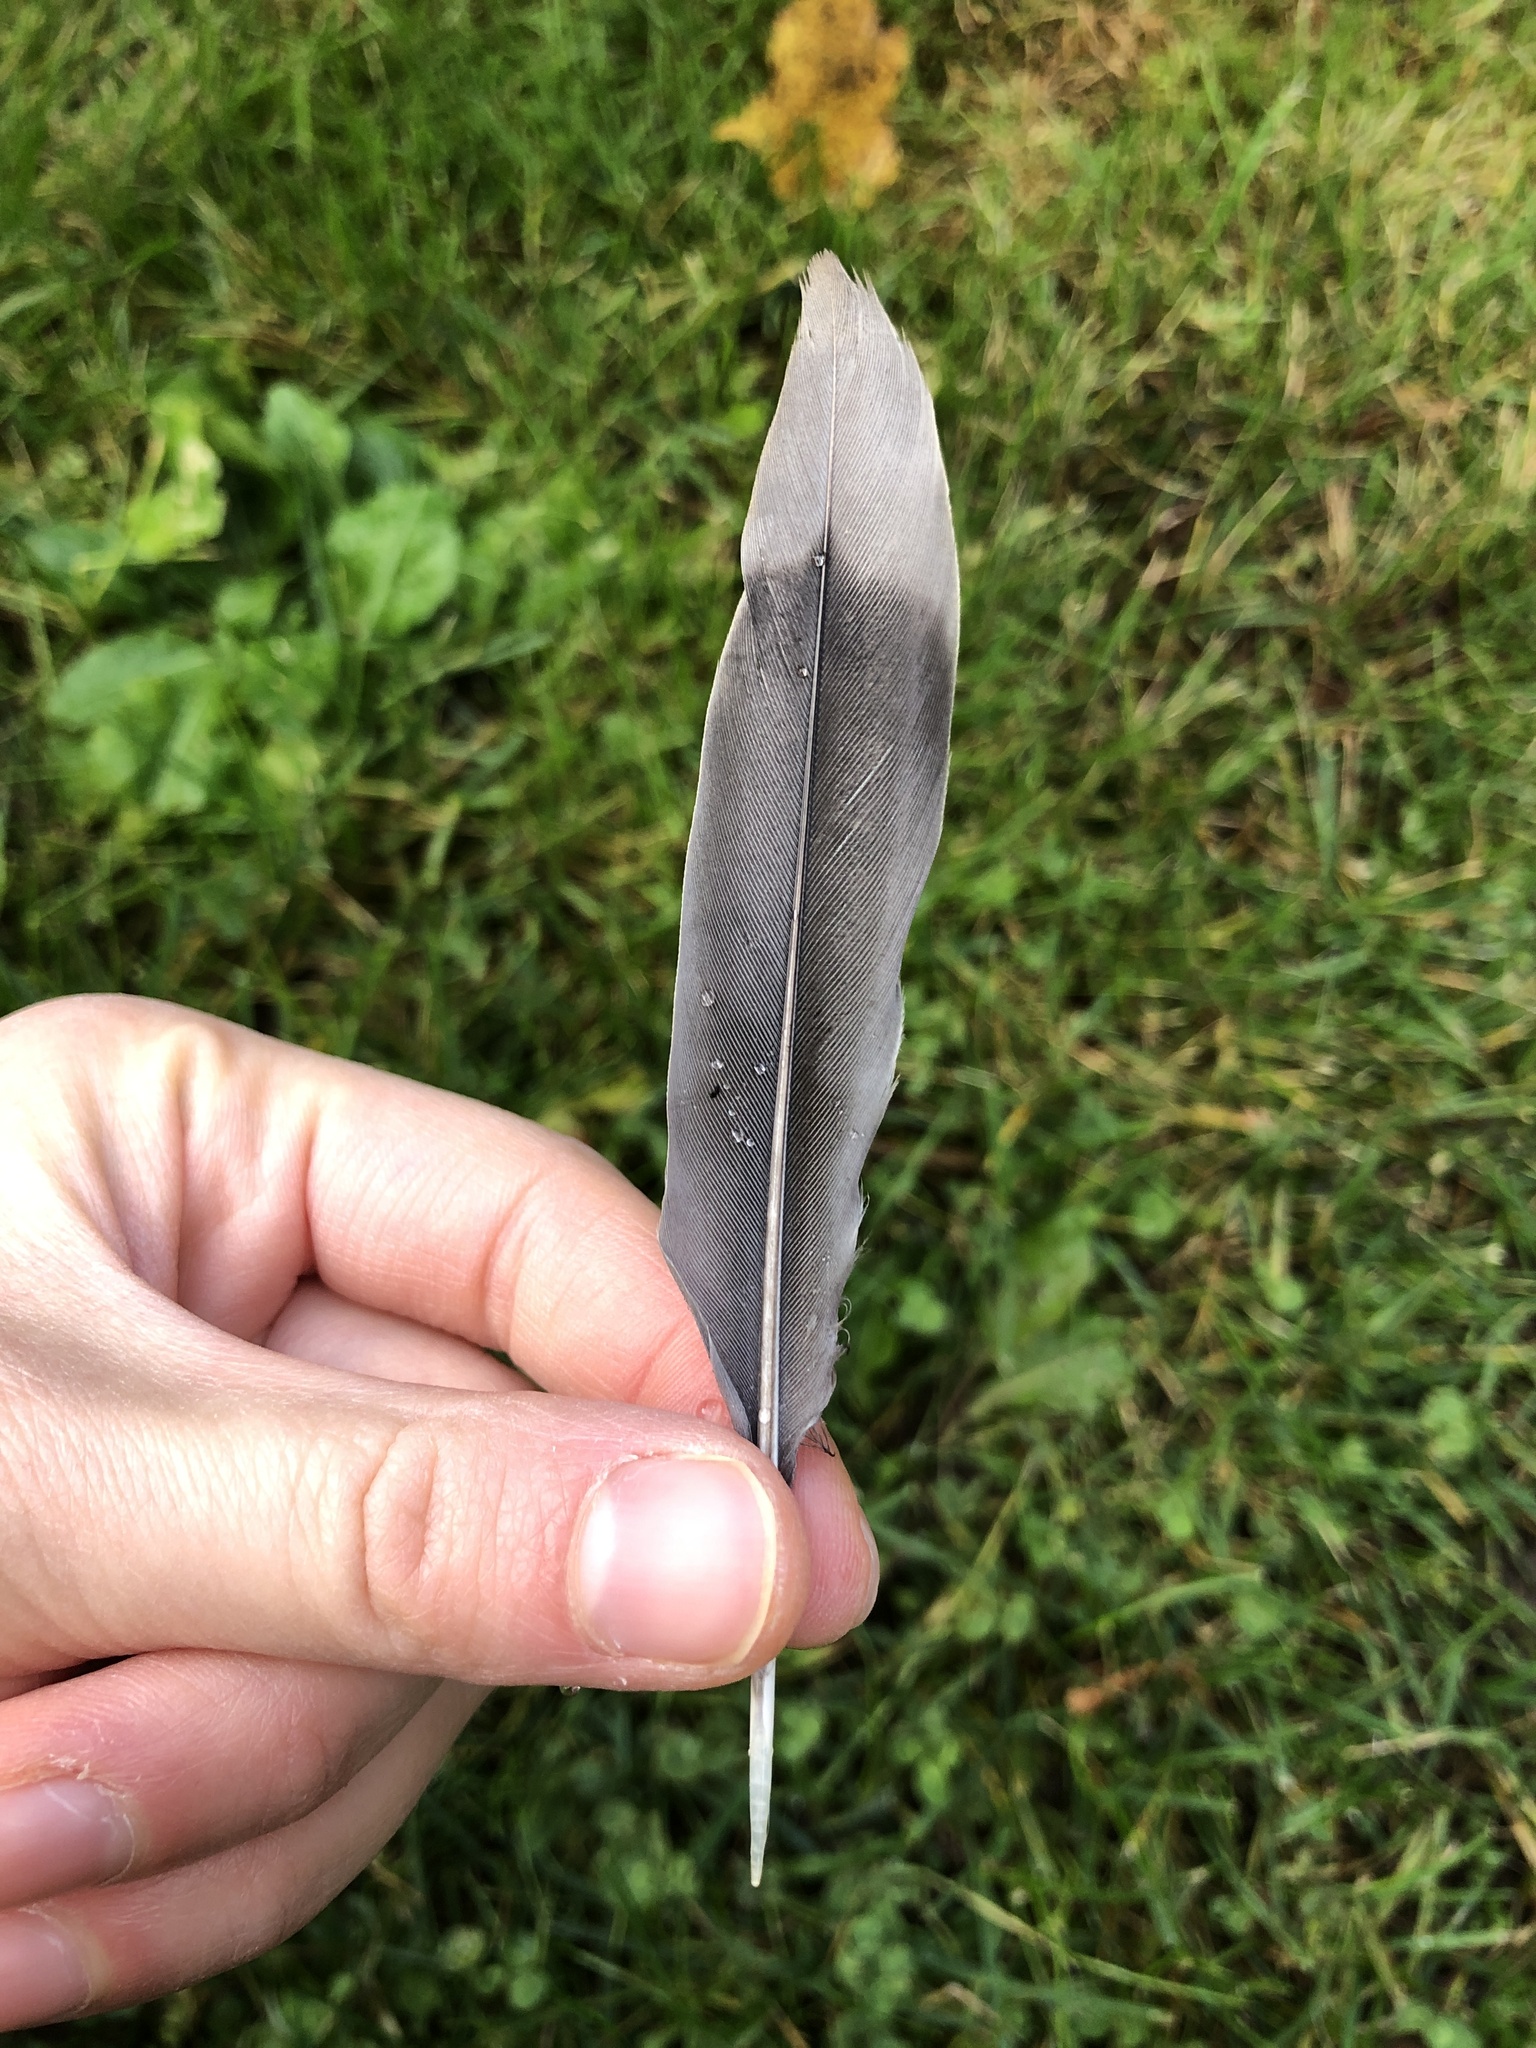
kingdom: Animalia
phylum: Chordata
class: Aves
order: Columbiformes
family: Columbidae
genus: Zenaida
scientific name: Zenaida macroura
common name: Mourning dove
